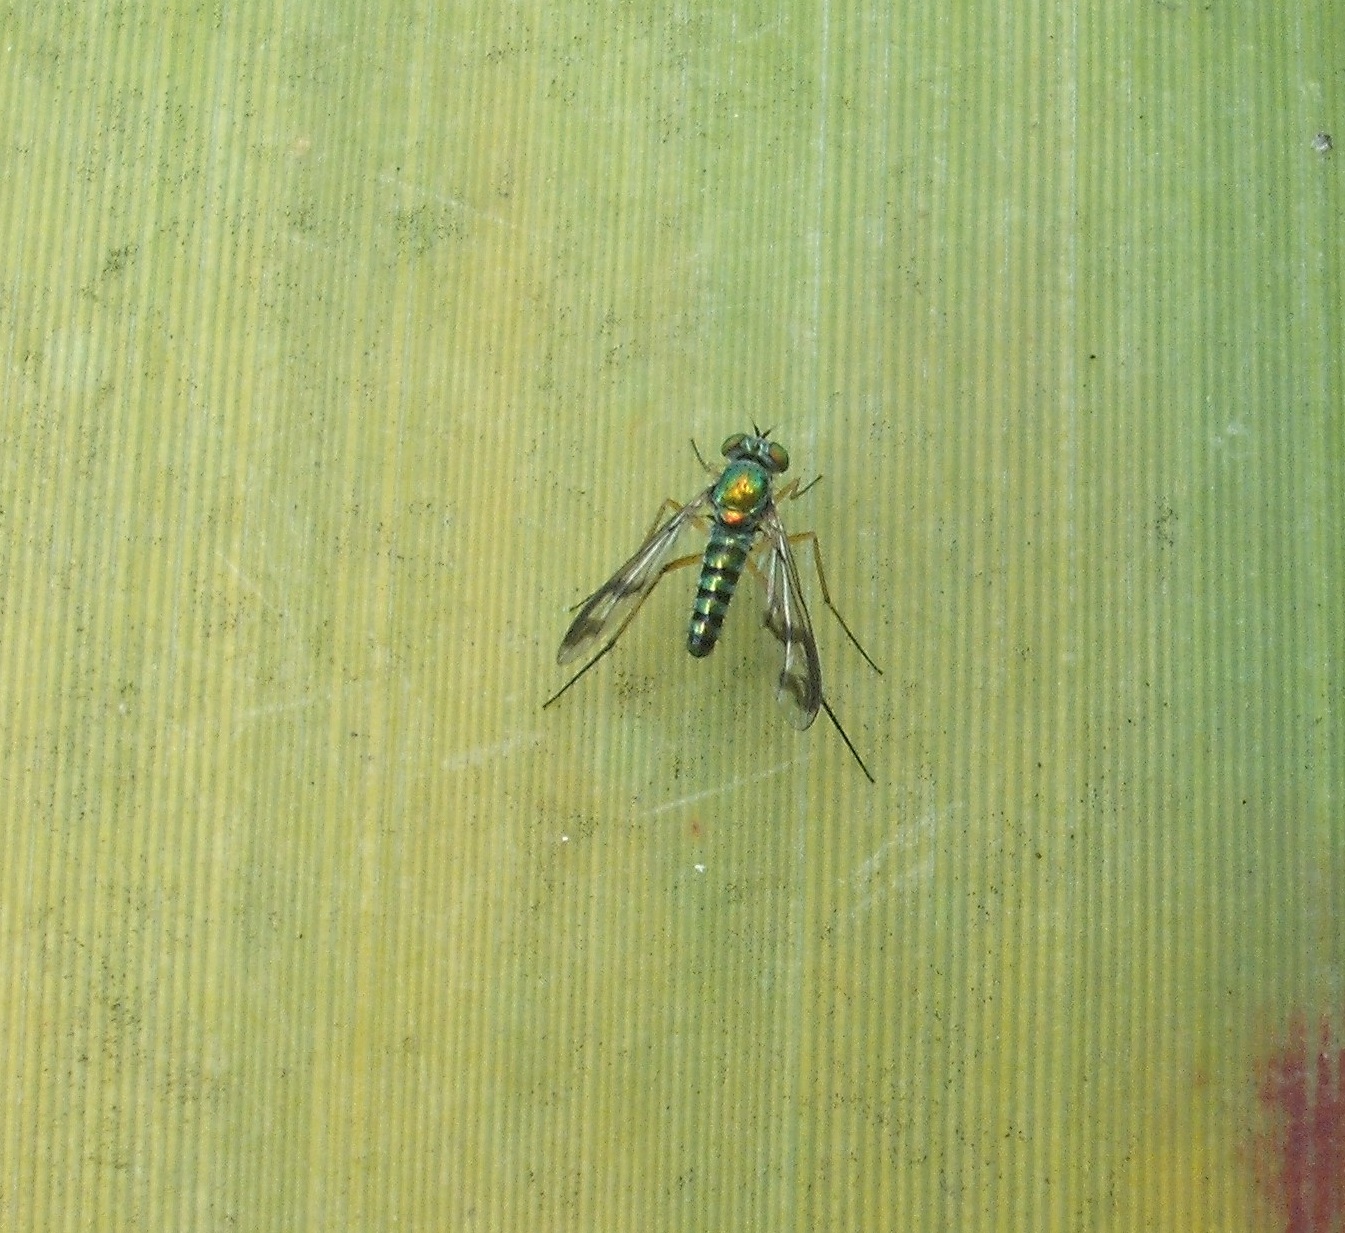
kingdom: Animalia
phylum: Arthropoda
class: Insecta
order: Diptera
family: Dolichopodidae
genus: Austrosciapus
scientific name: Austrosciapus proximus
